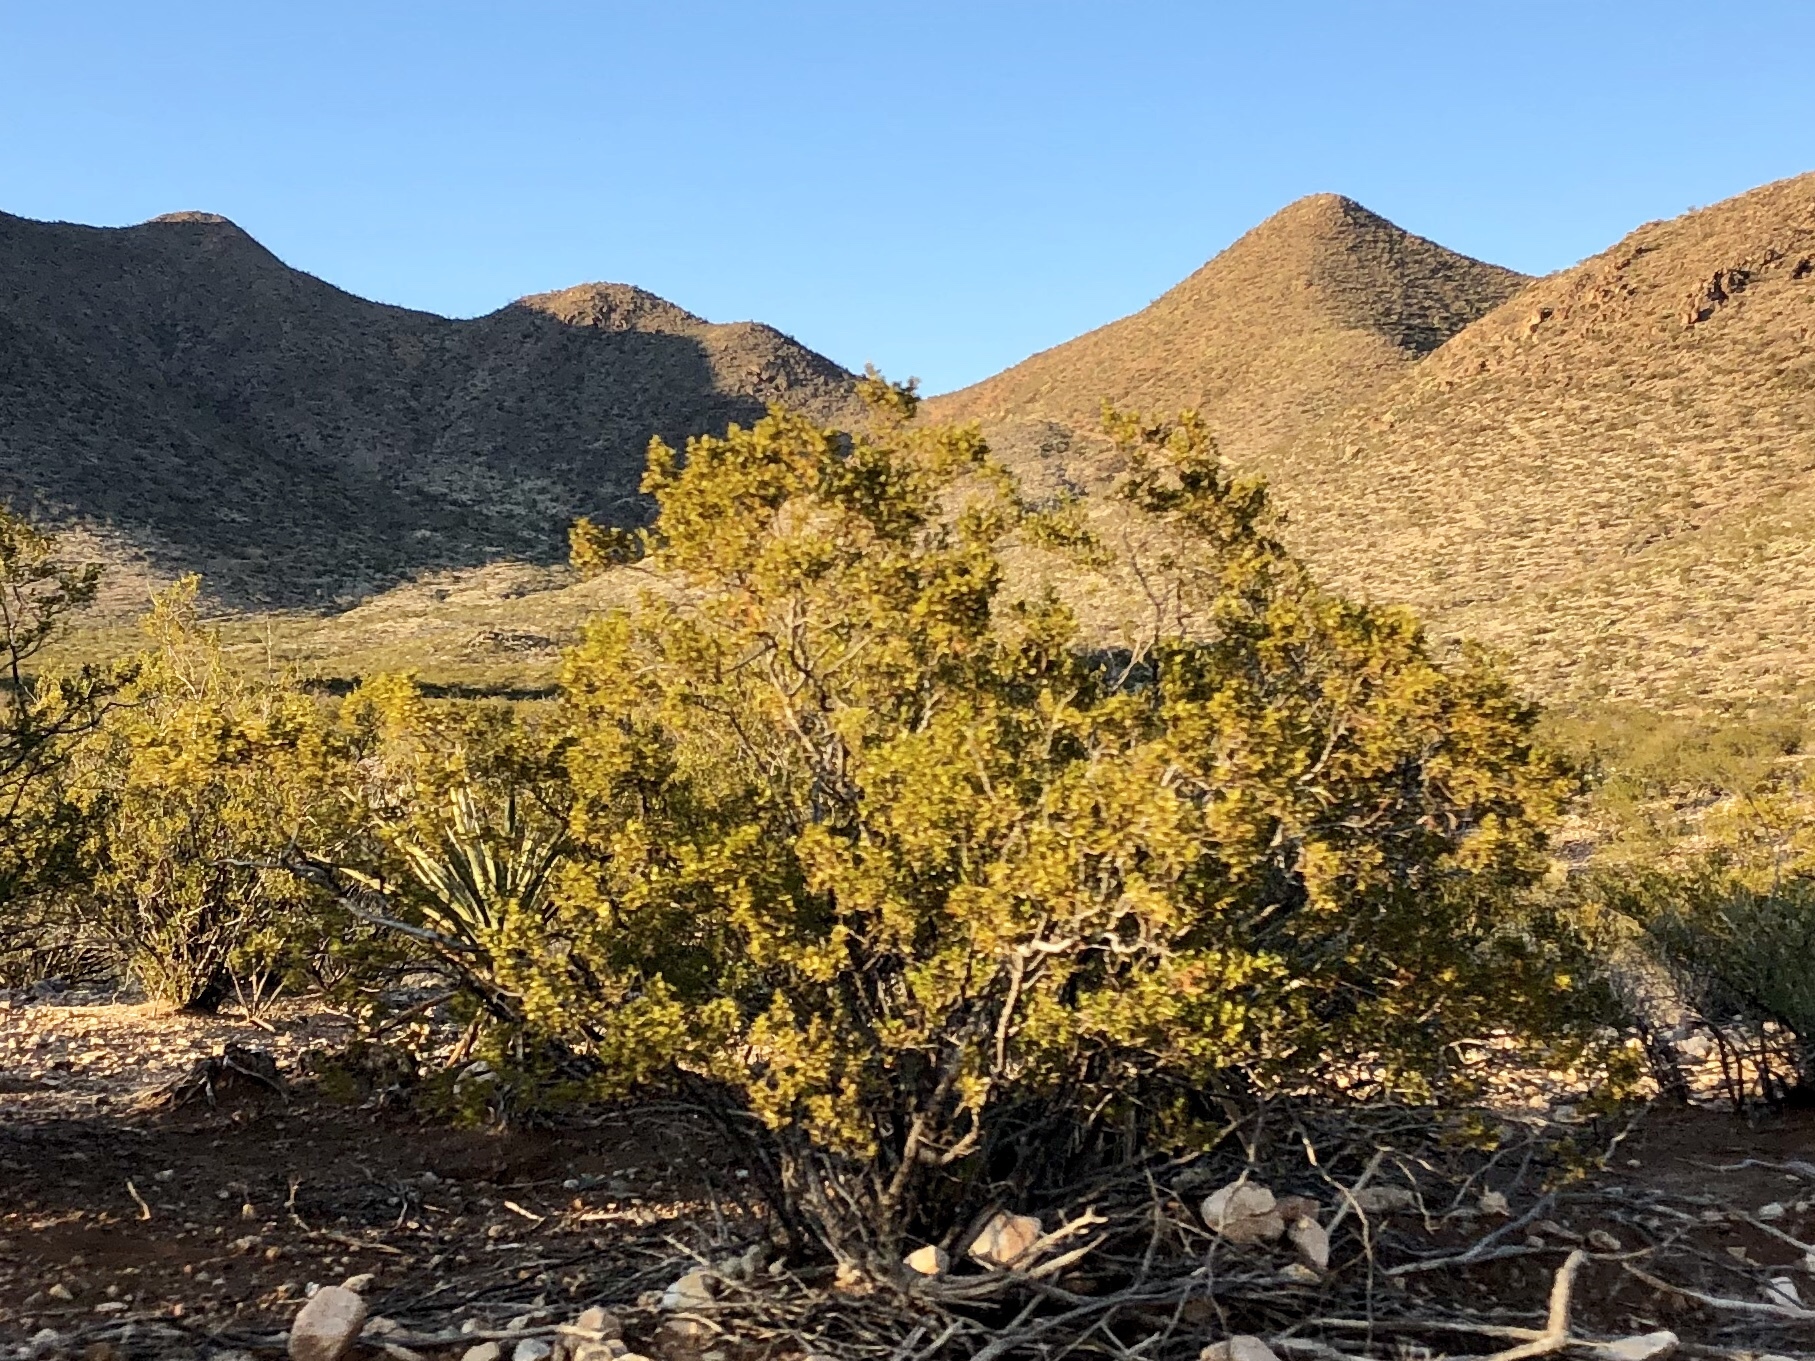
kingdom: Plantae
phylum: Tracheophyta
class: Magnoliopsida
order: Zygophyllales
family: Zygophyllaceae
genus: Larrea
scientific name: Larrea tridentata
